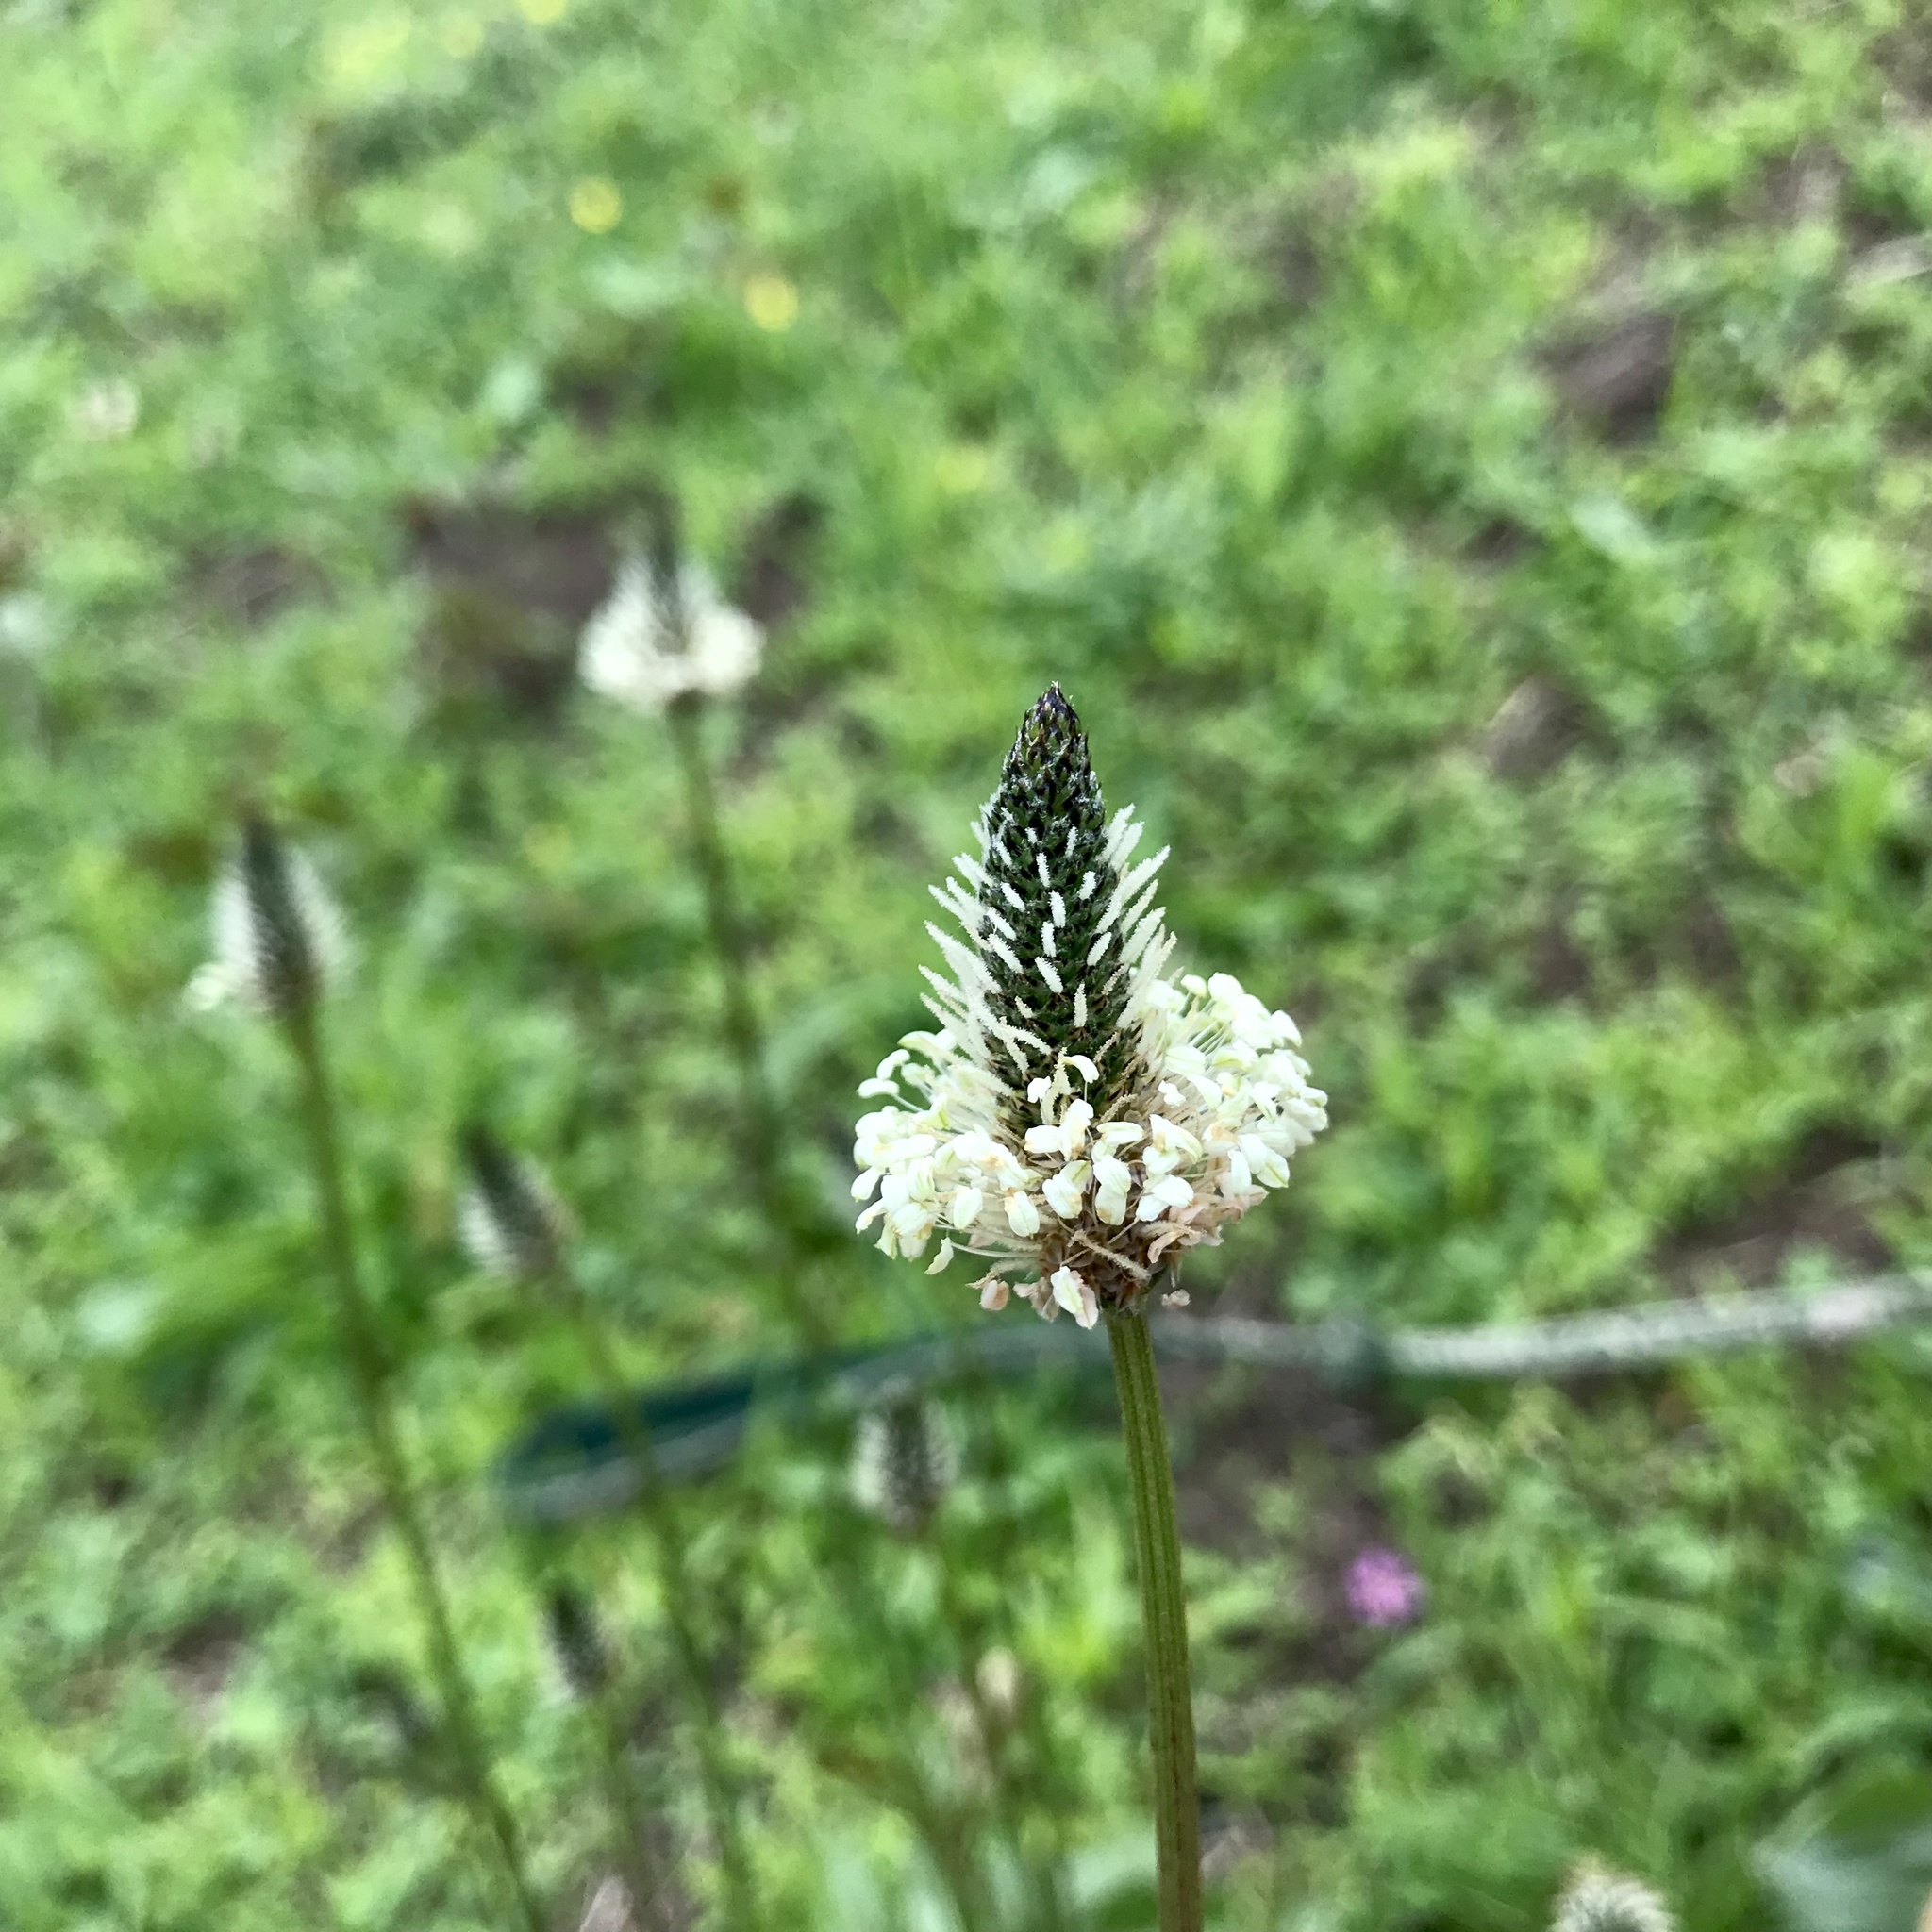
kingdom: Plantae
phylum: Tracheophyta
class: Magnoliopsida
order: Lamiales
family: Plantaginaceae
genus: Plantago
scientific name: Plantago lanceolata
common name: Ribwort plantain
